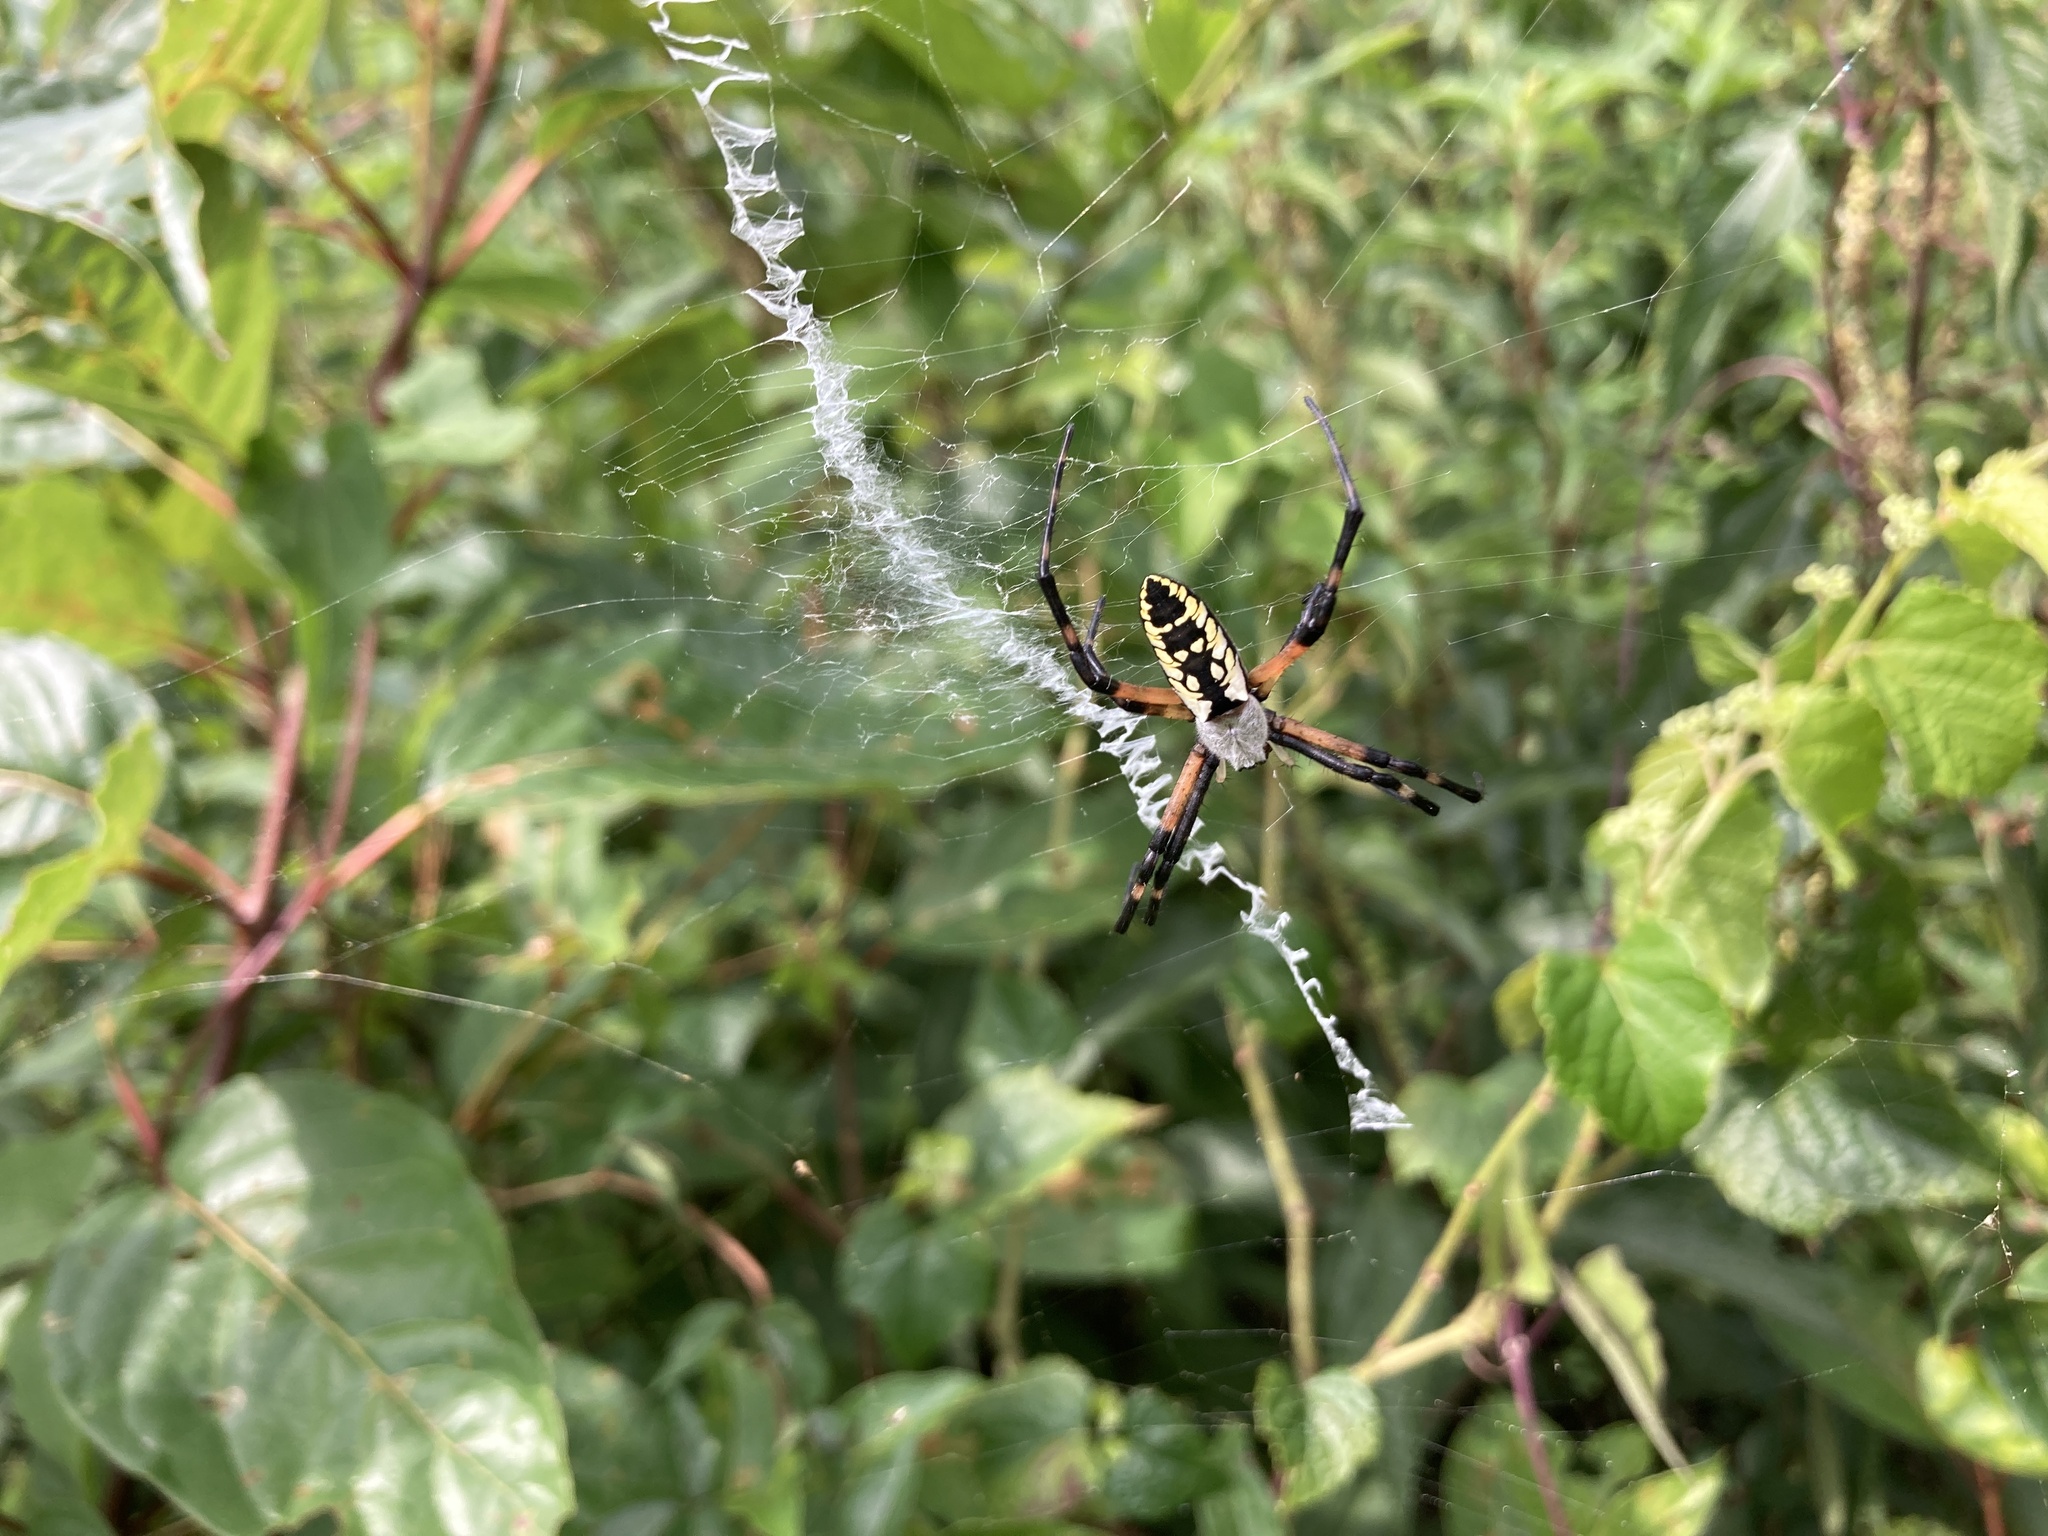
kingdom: Animalia
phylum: Arthropoda
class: Arachnida
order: Araneae
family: Araneidae
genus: Argiope
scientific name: Argiope aurantia
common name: Orb weavers
